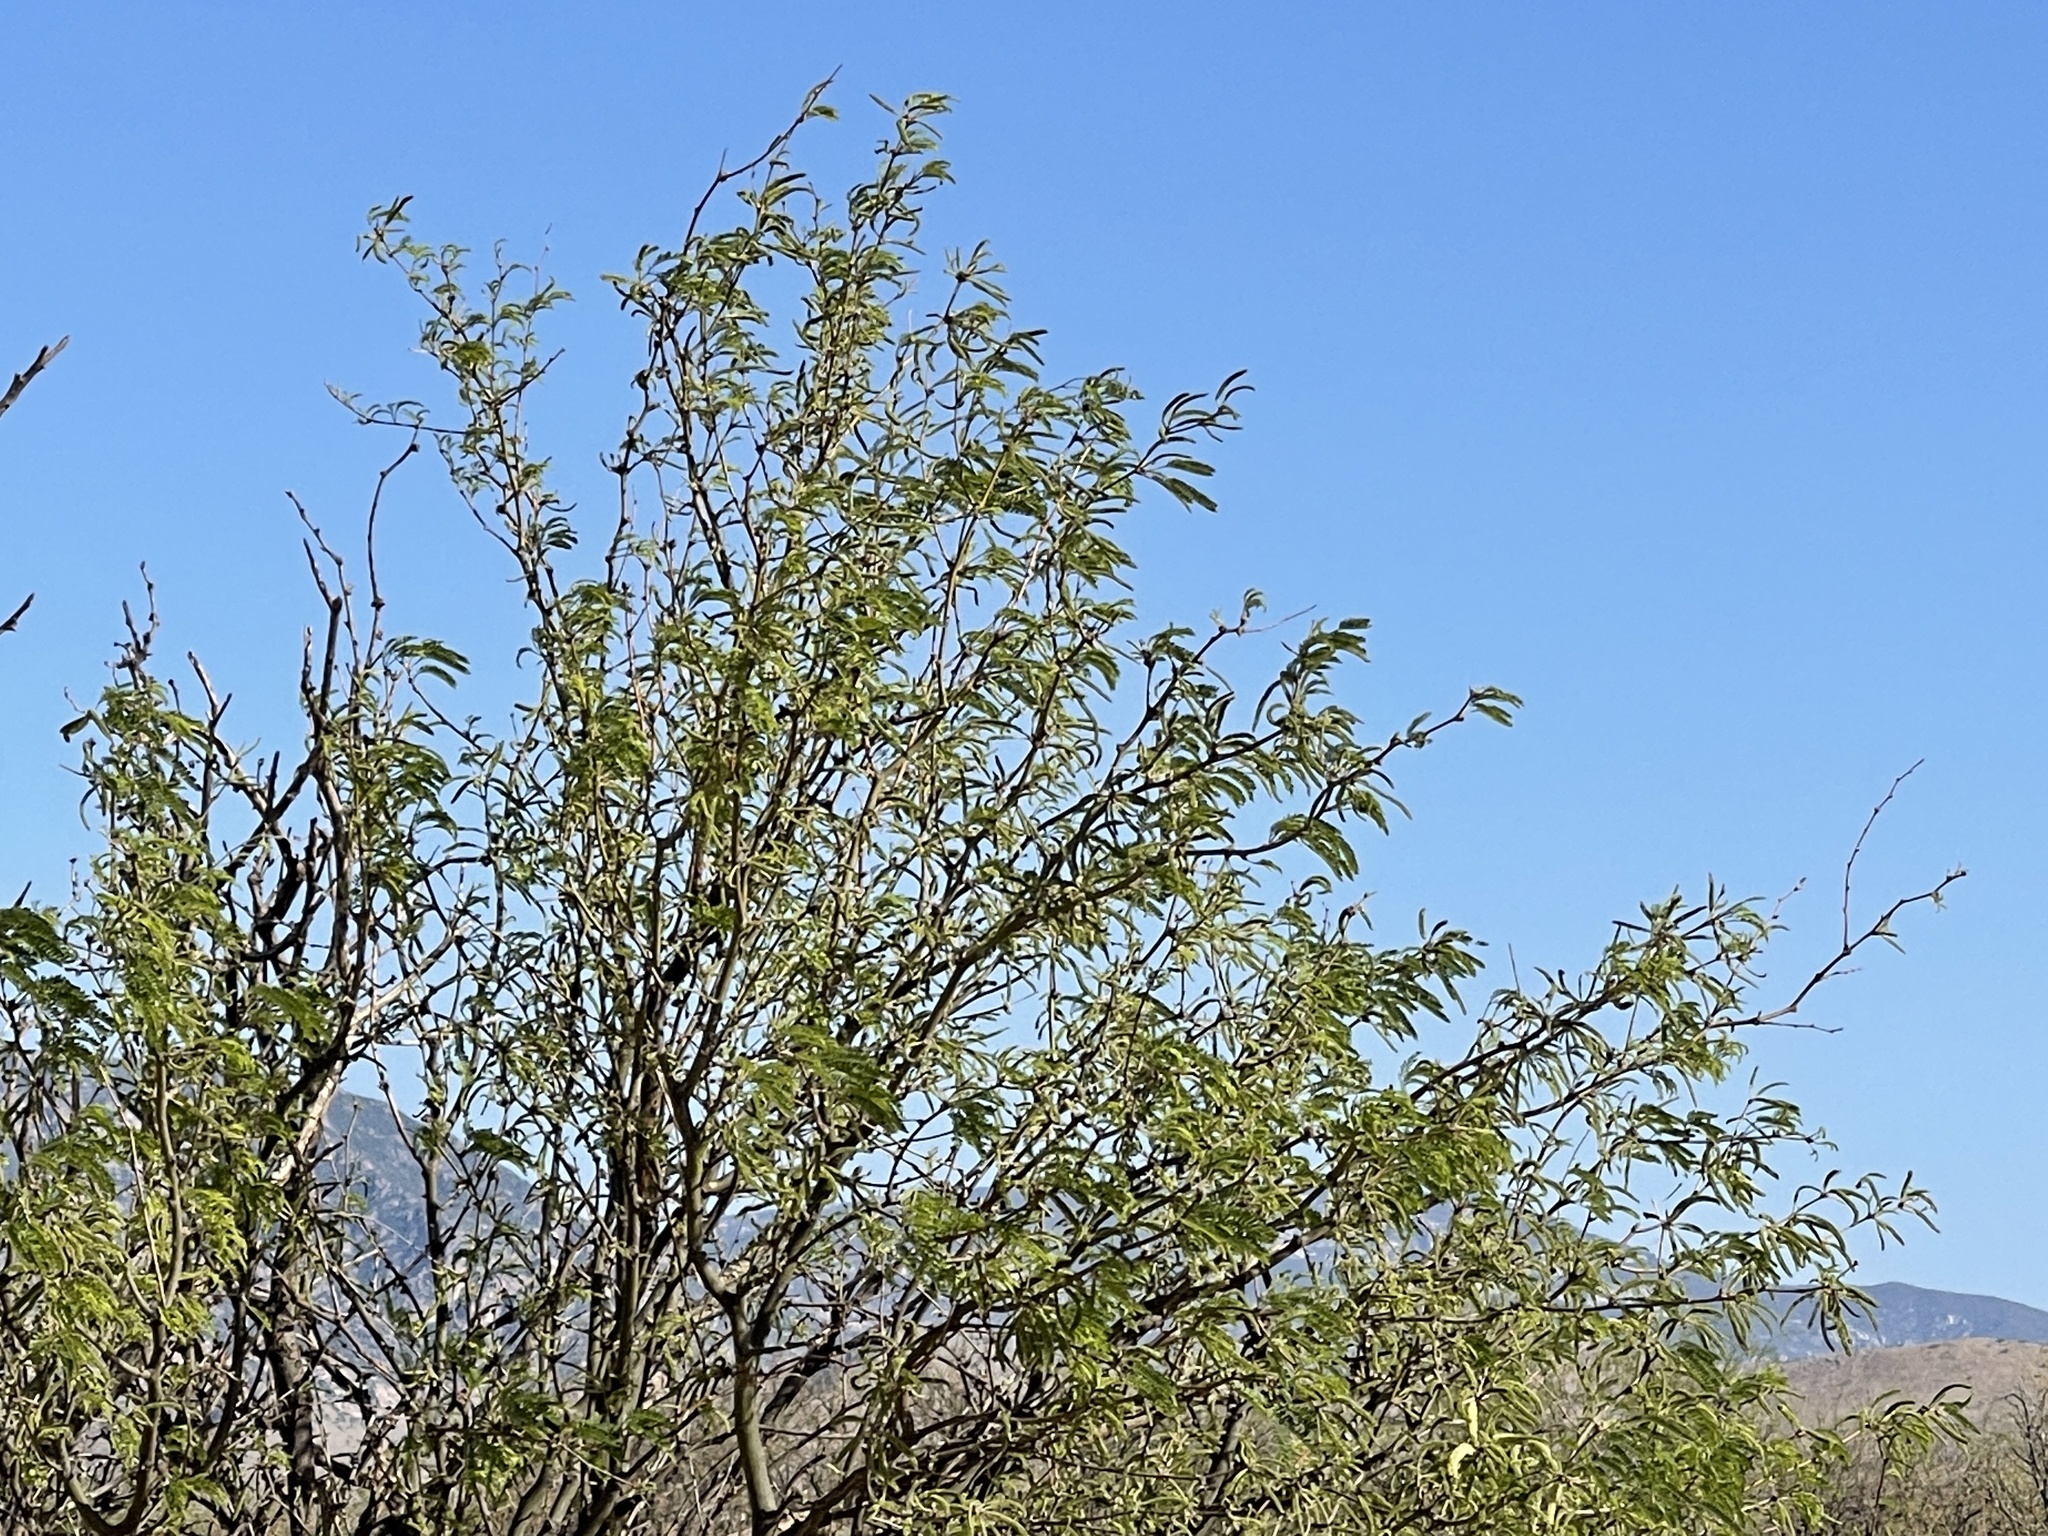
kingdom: Plantae
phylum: Tracheophyta
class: Magnoliopsida
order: Fabales
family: Fabaceae
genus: Prosopis
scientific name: Prosopis velutina
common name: Velvet mesquite
